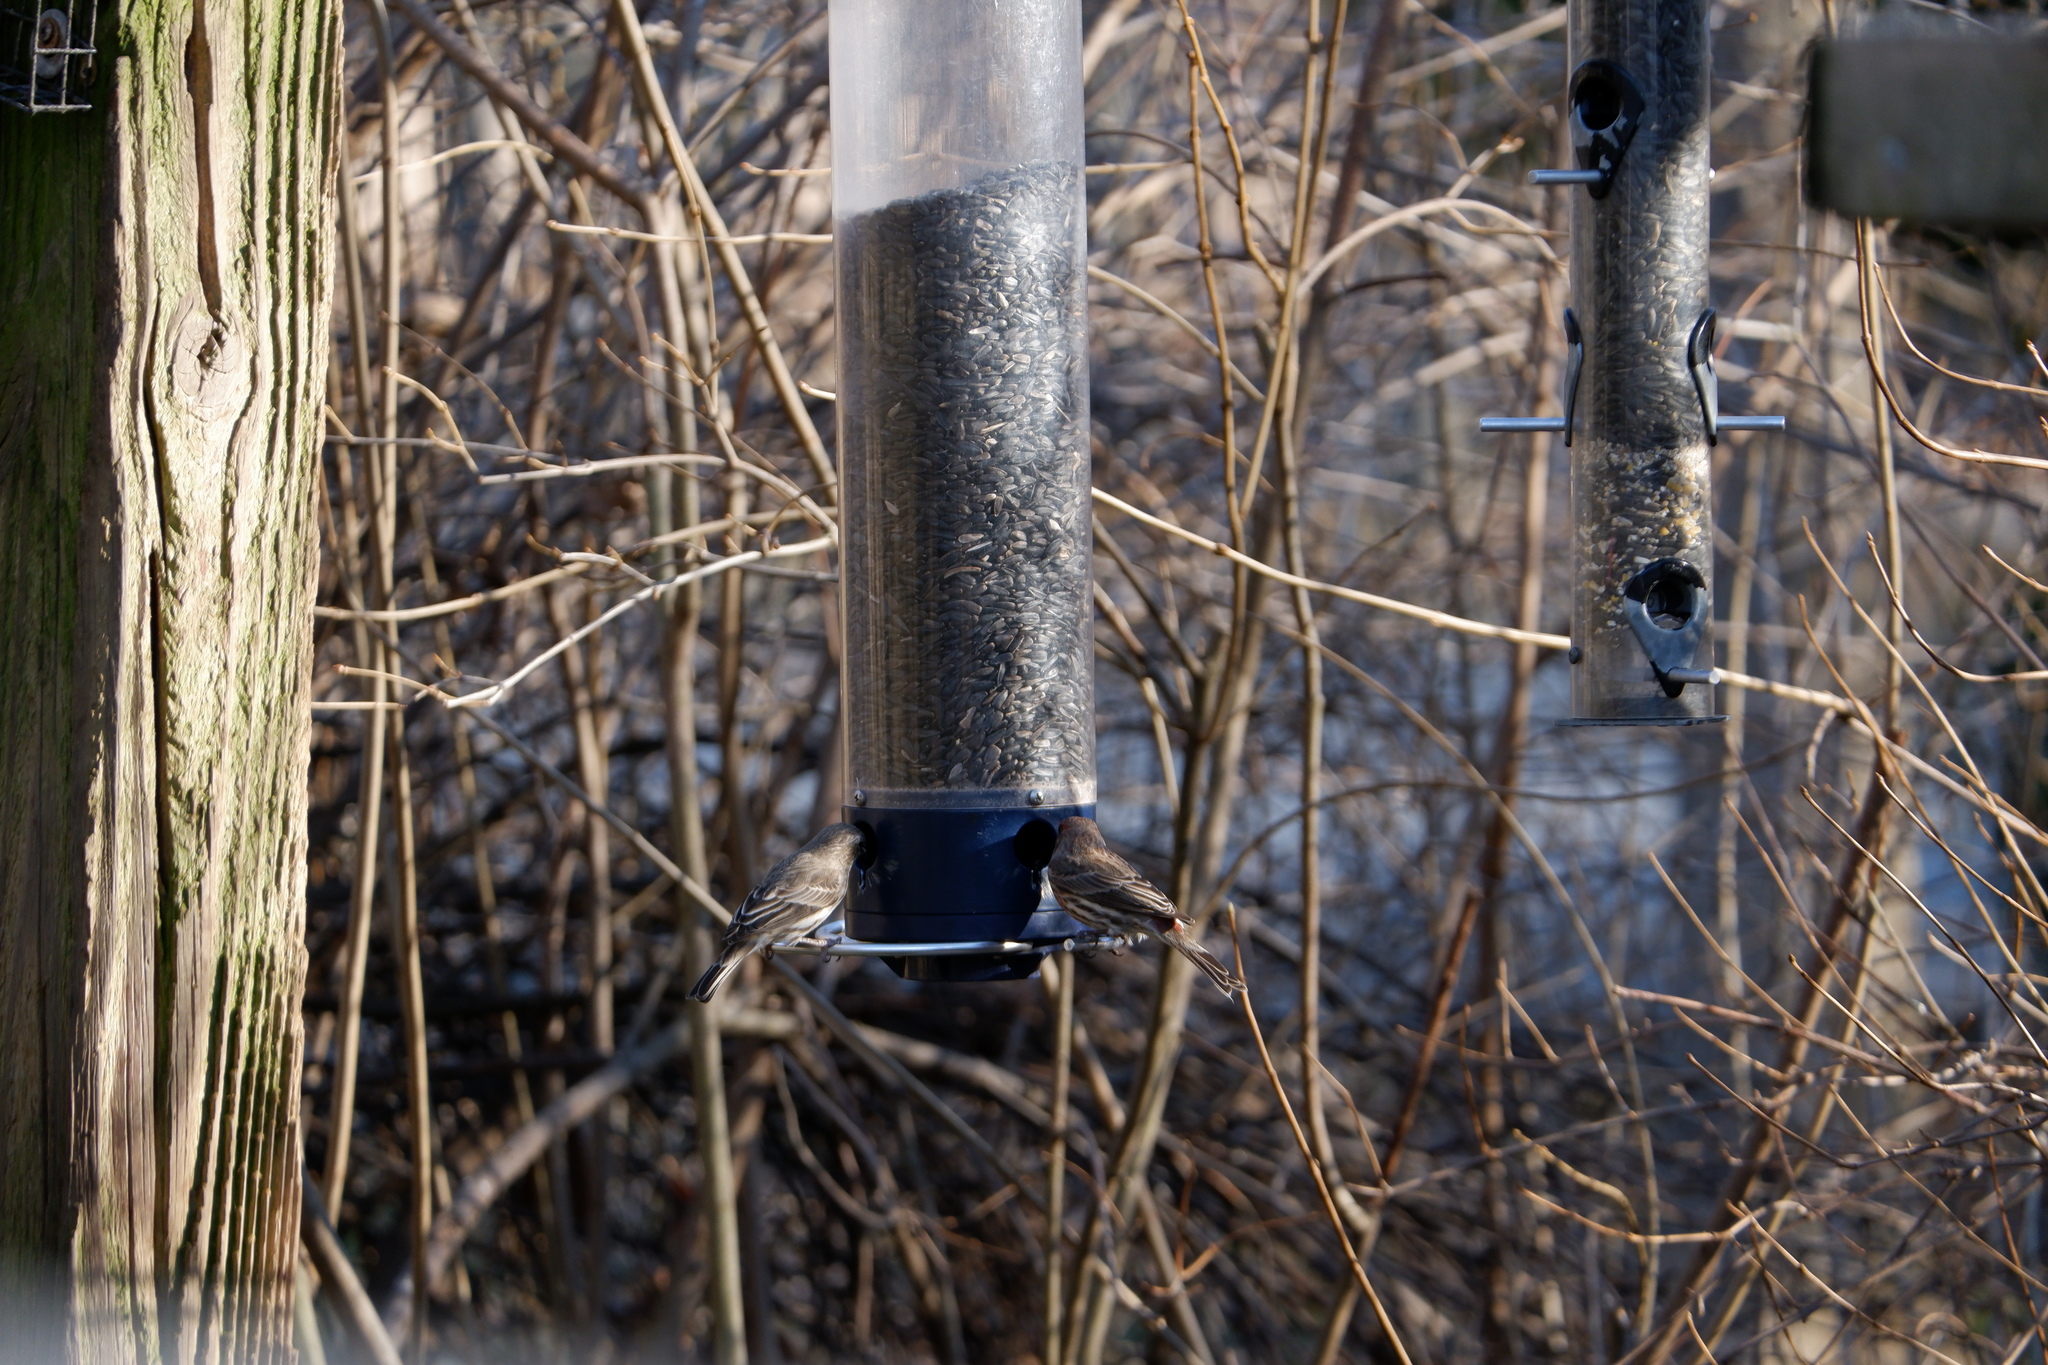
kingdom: Animalia
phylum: Chordata
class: Aves
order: Passeriformes
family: Fringillidae
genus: Haemorhous
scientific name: Haemorhous mexicanus
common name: House finch
